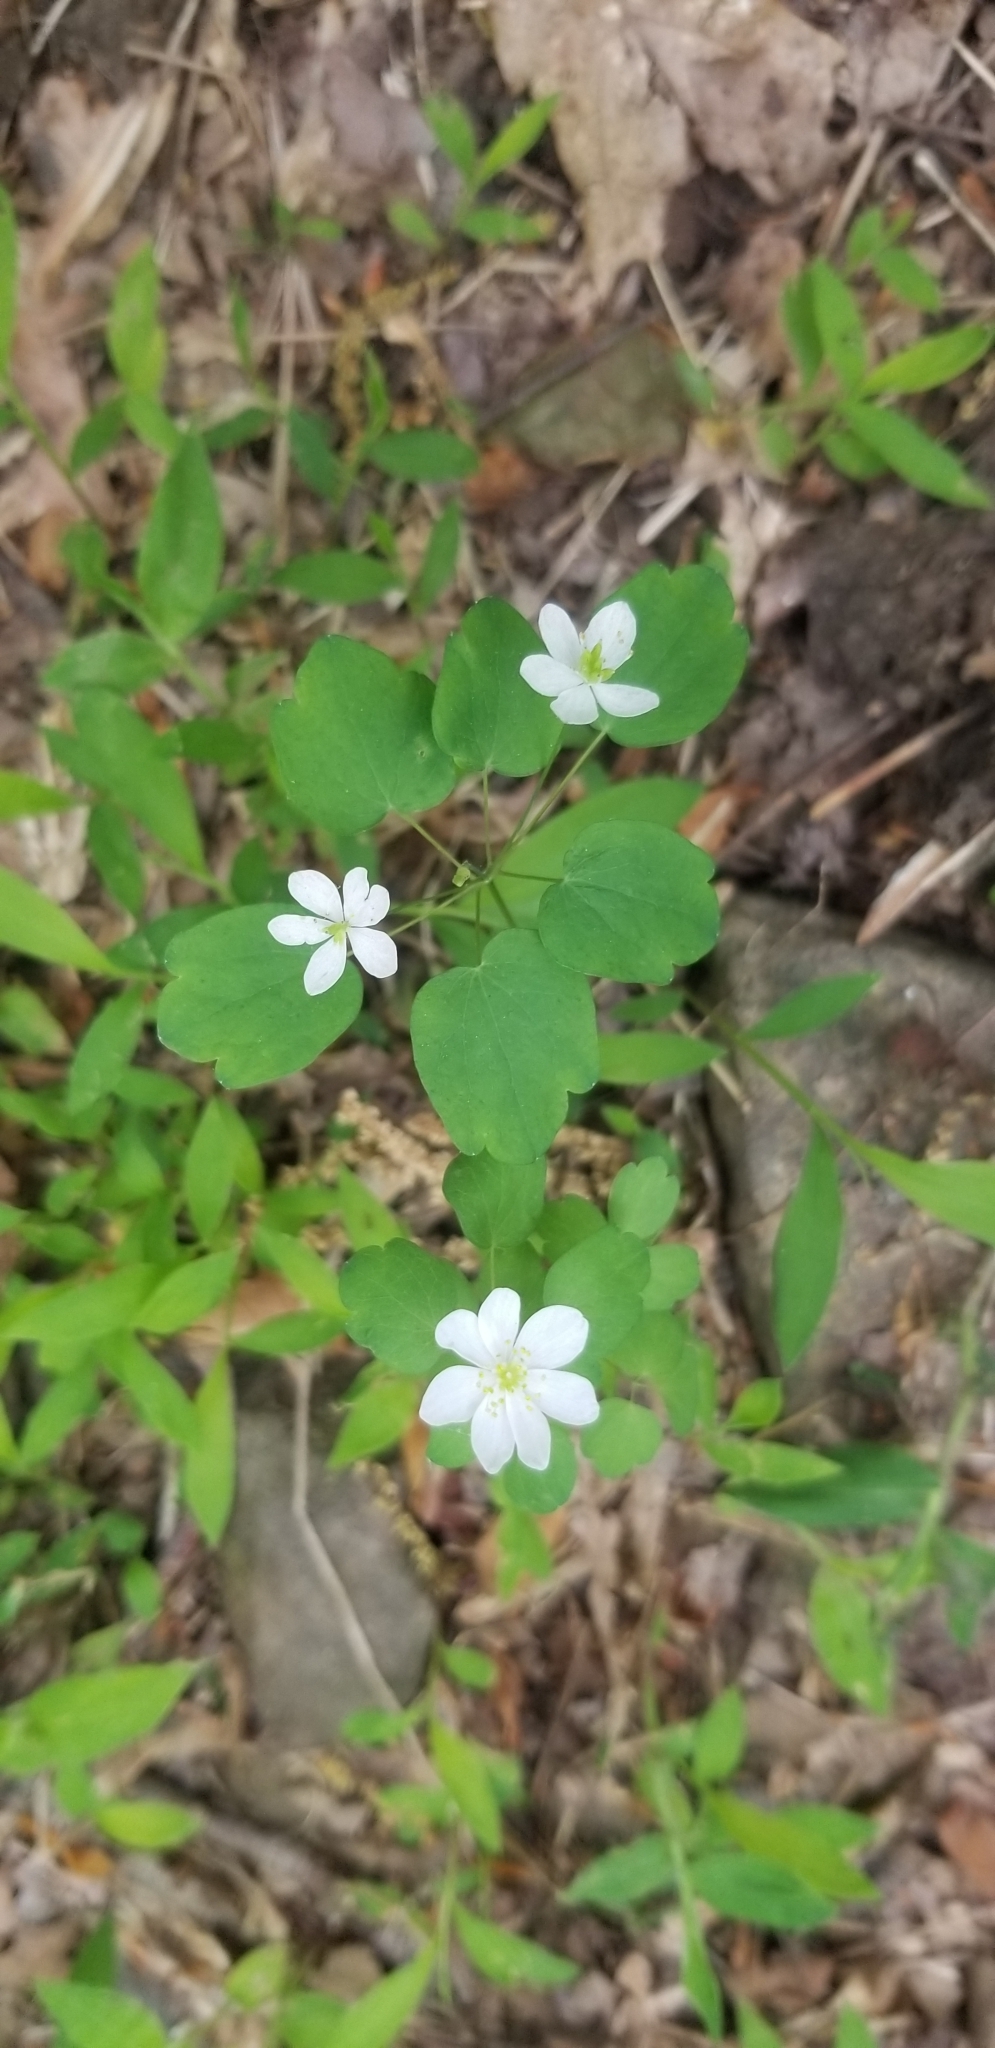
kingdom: Plantae
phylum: Tracheophyta
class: Magnoliopsida
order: Ranunculales
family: Ranunculaceae
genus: Thalictrum
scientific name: Thalictrum thalictroides
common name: Rue-anemone
